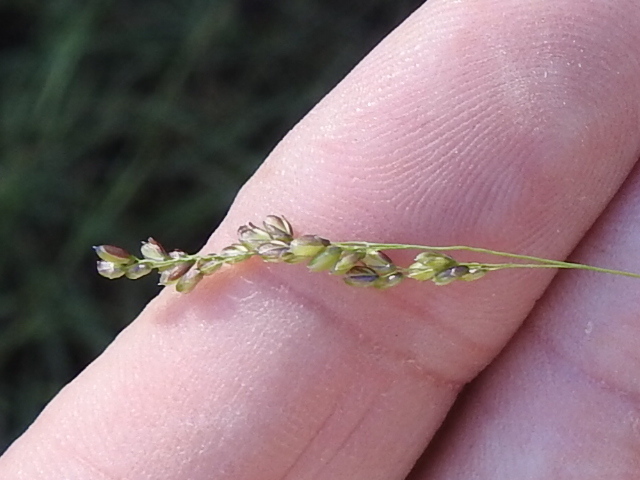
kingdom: Plantae
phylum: Tracheophyta
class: Liliopsida
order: Poales
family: Poaceae
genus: Steinchisma
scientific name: Steinchisma hians
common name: Gaping panic grass
